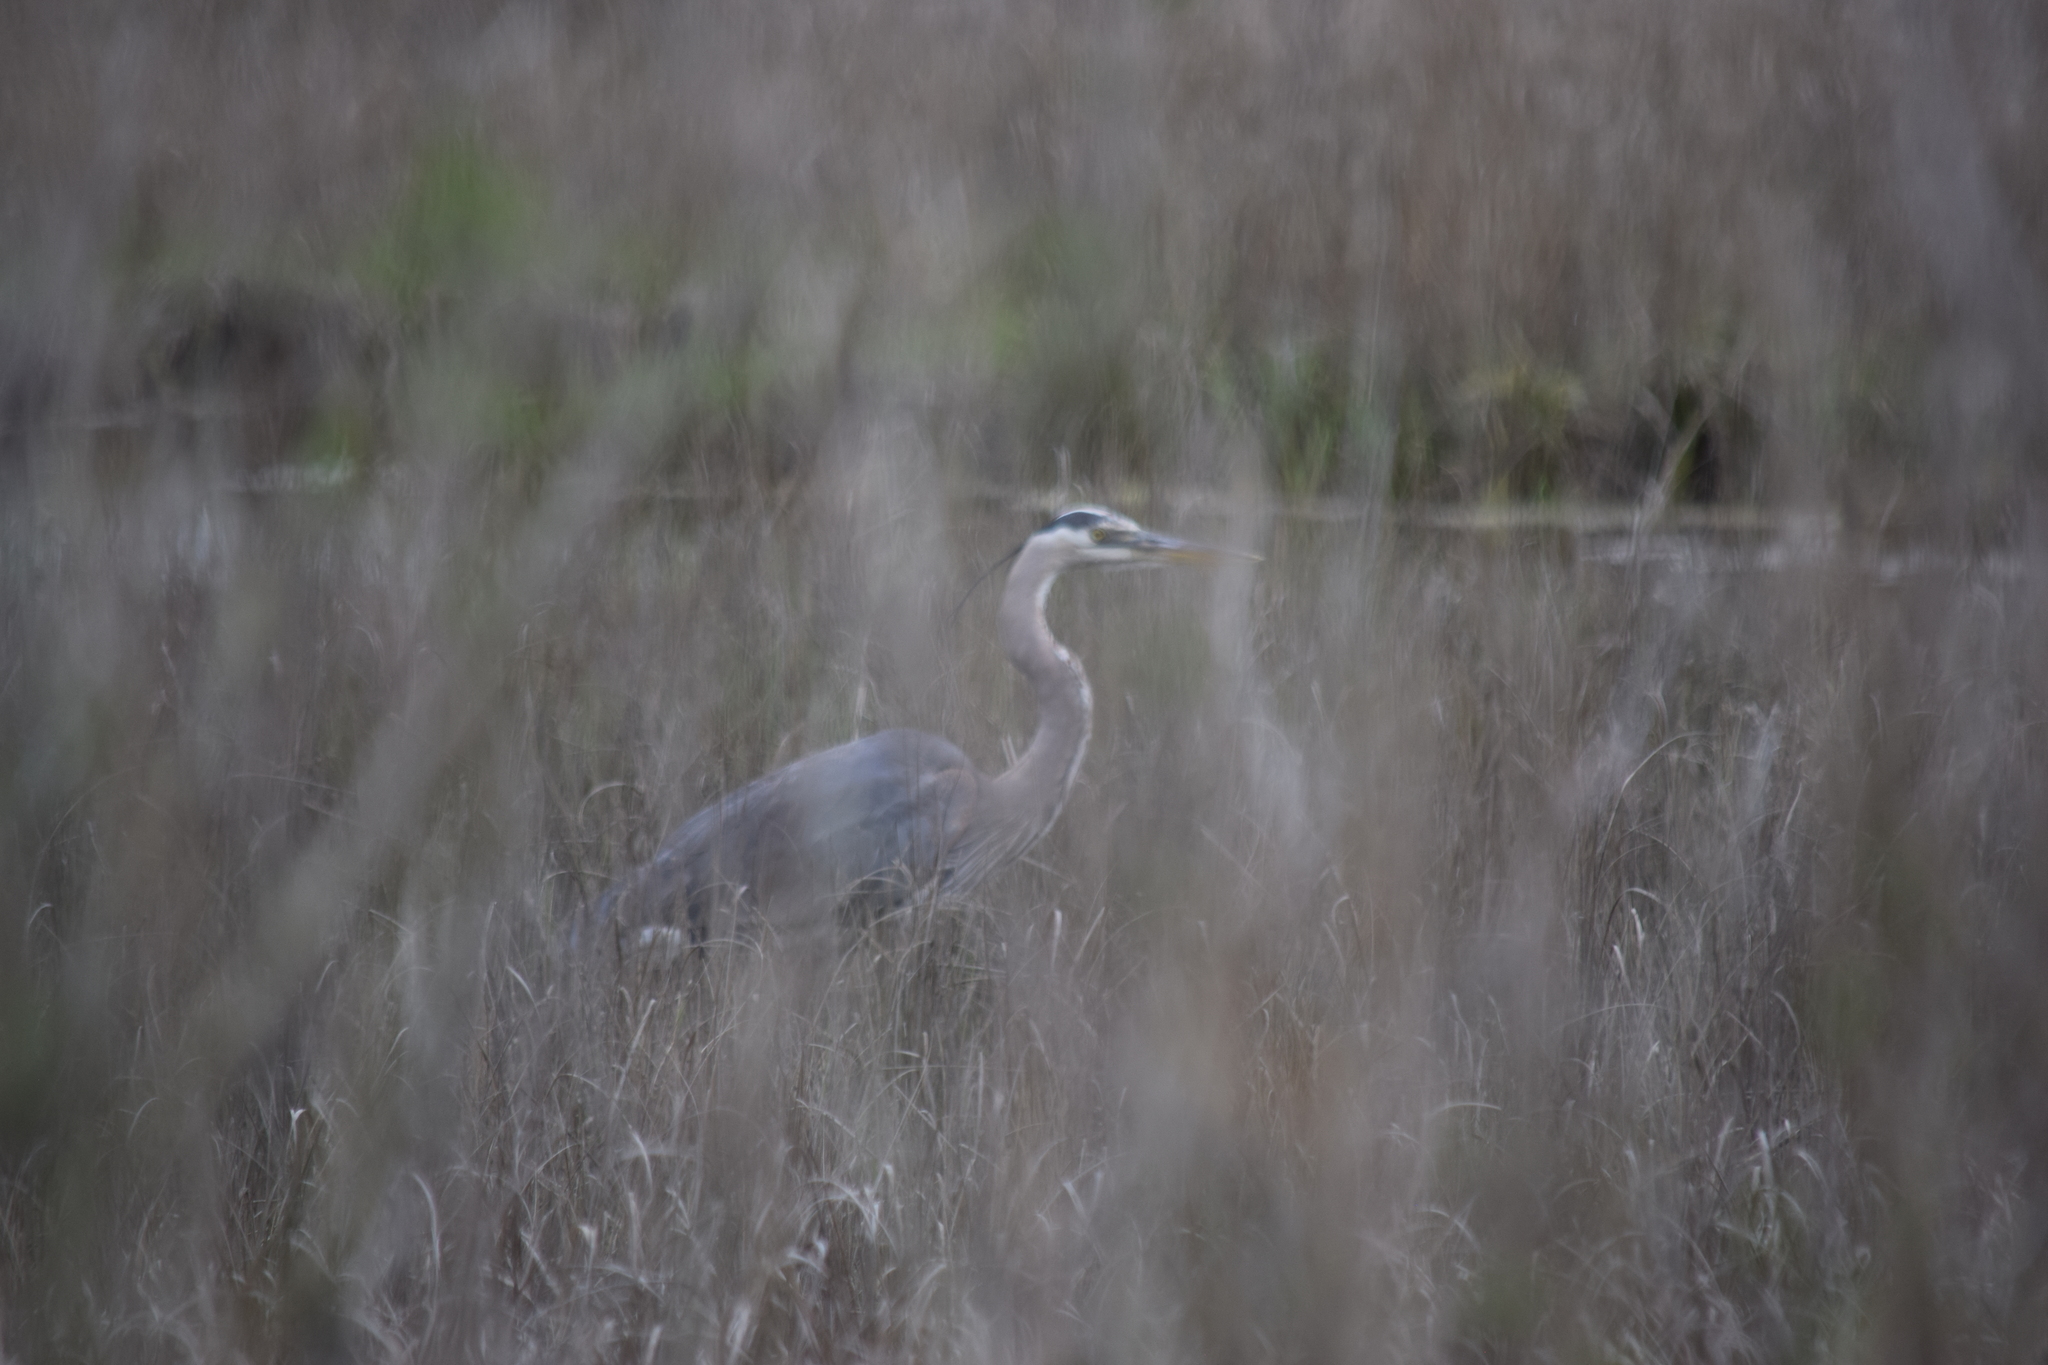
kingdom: Animalia
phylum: Chordata
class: Aves
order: Pelecaniformes
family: Ardeidae
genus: Ardea
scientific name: Ardea herodias
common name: Great blue heron
